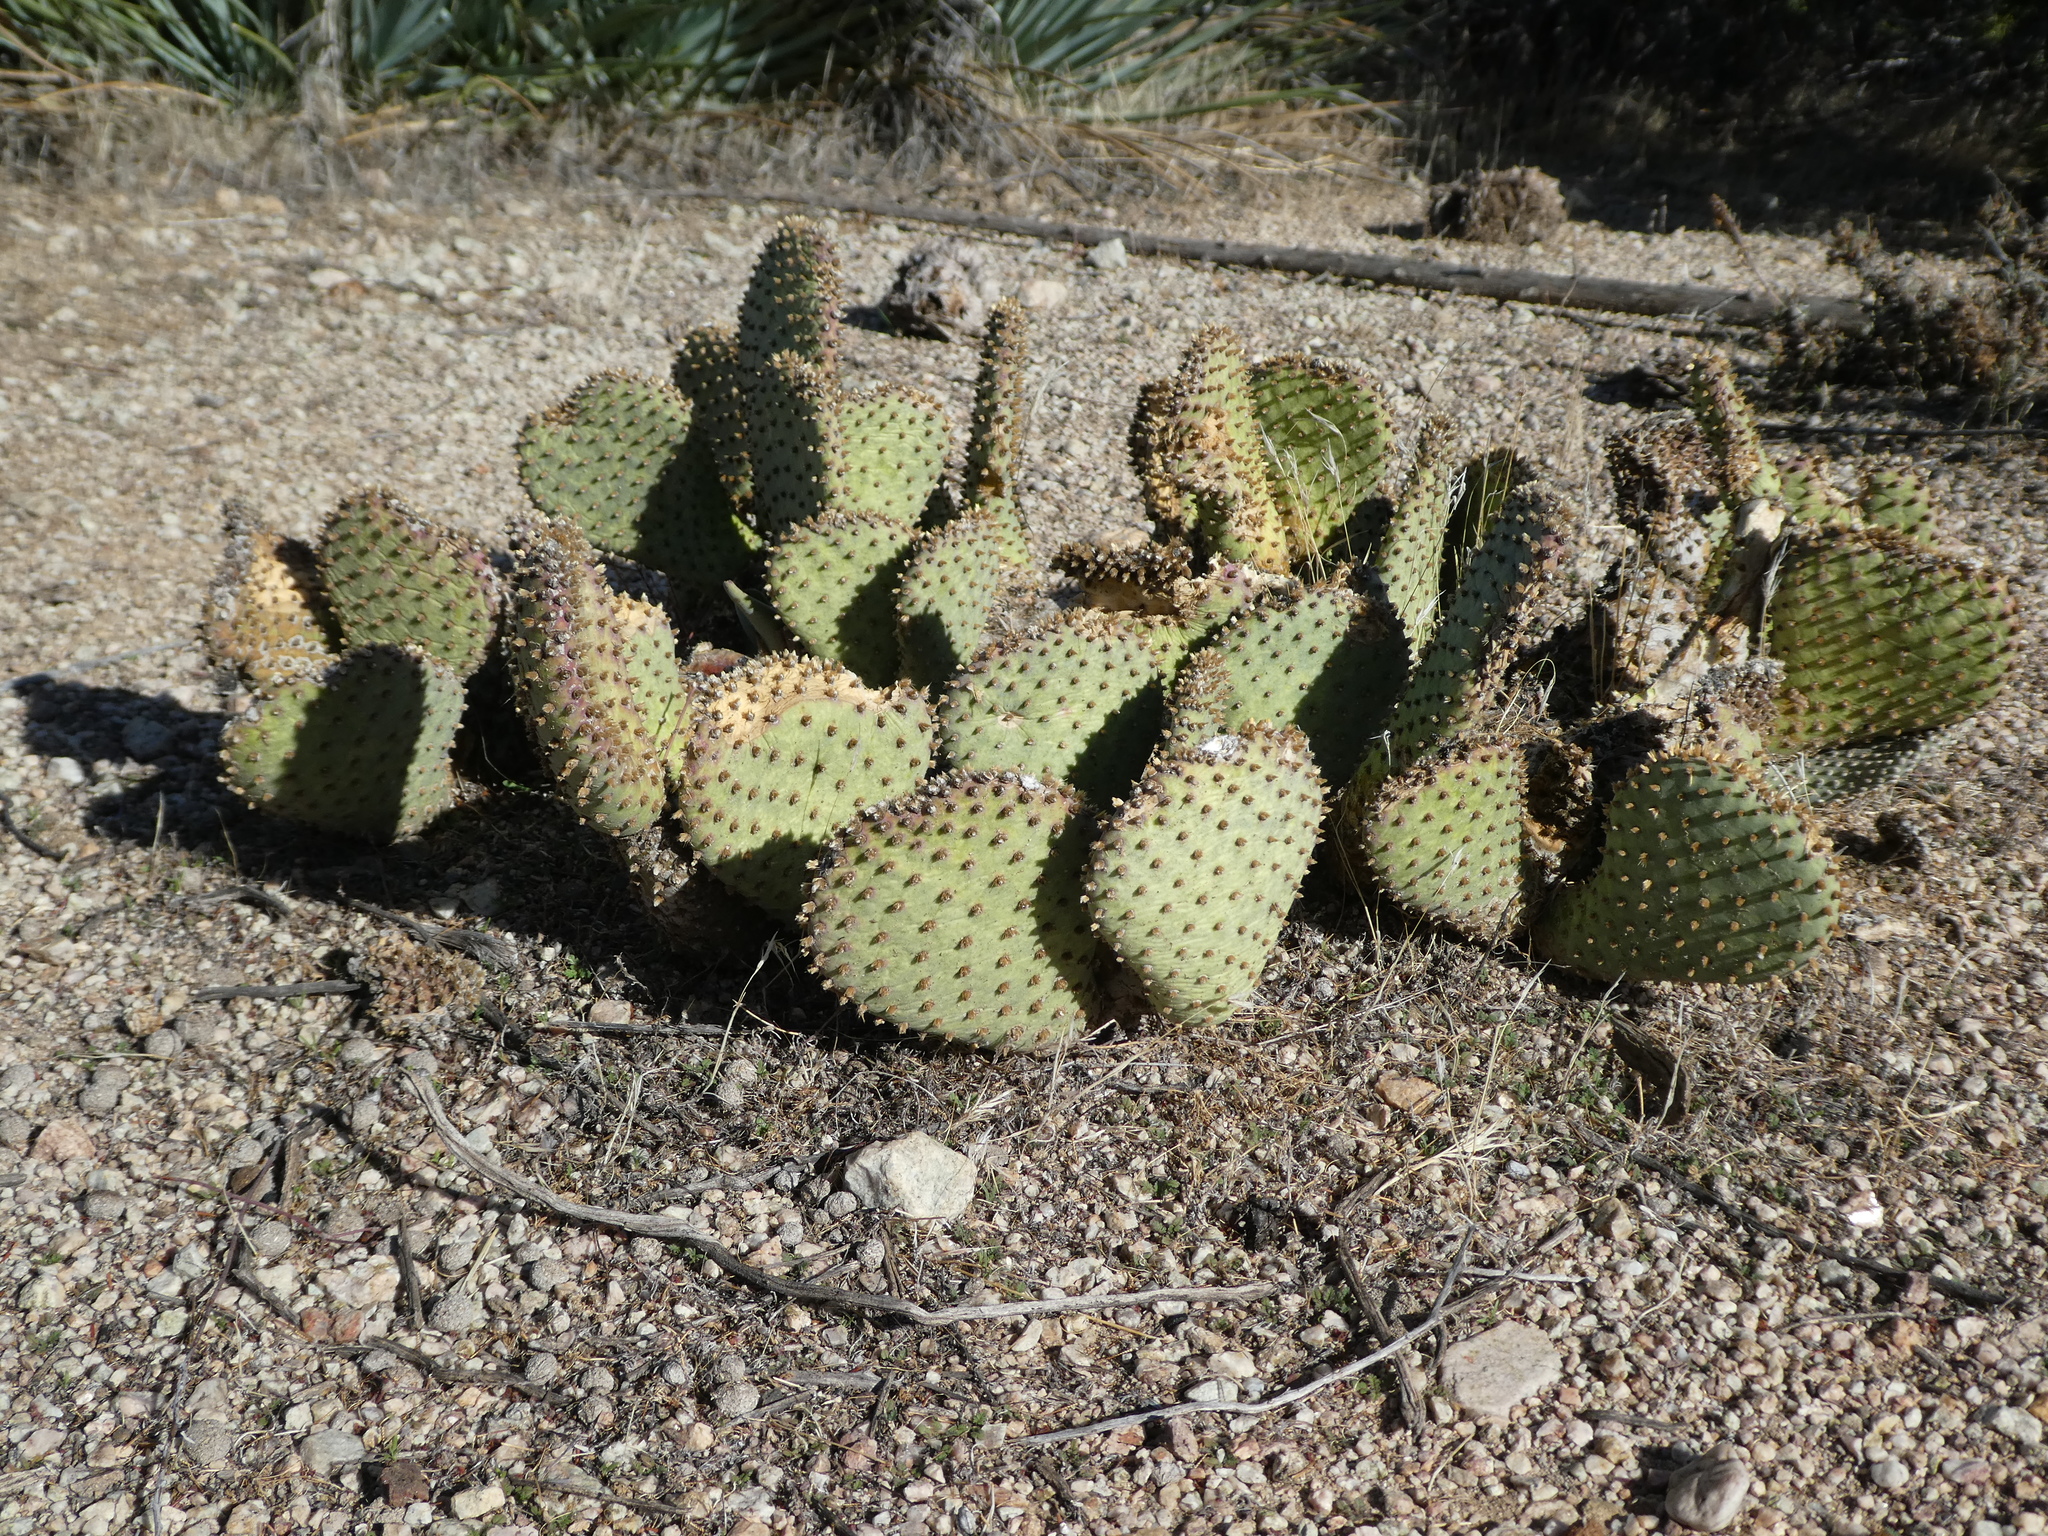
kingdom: Plantae
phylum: Tracheophyta
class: Magnoliopsida
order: Caryophyllales
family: Cactaceae
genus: Opuntia
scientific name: Opuntia basilaris
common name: Beavertail prickly-pear
